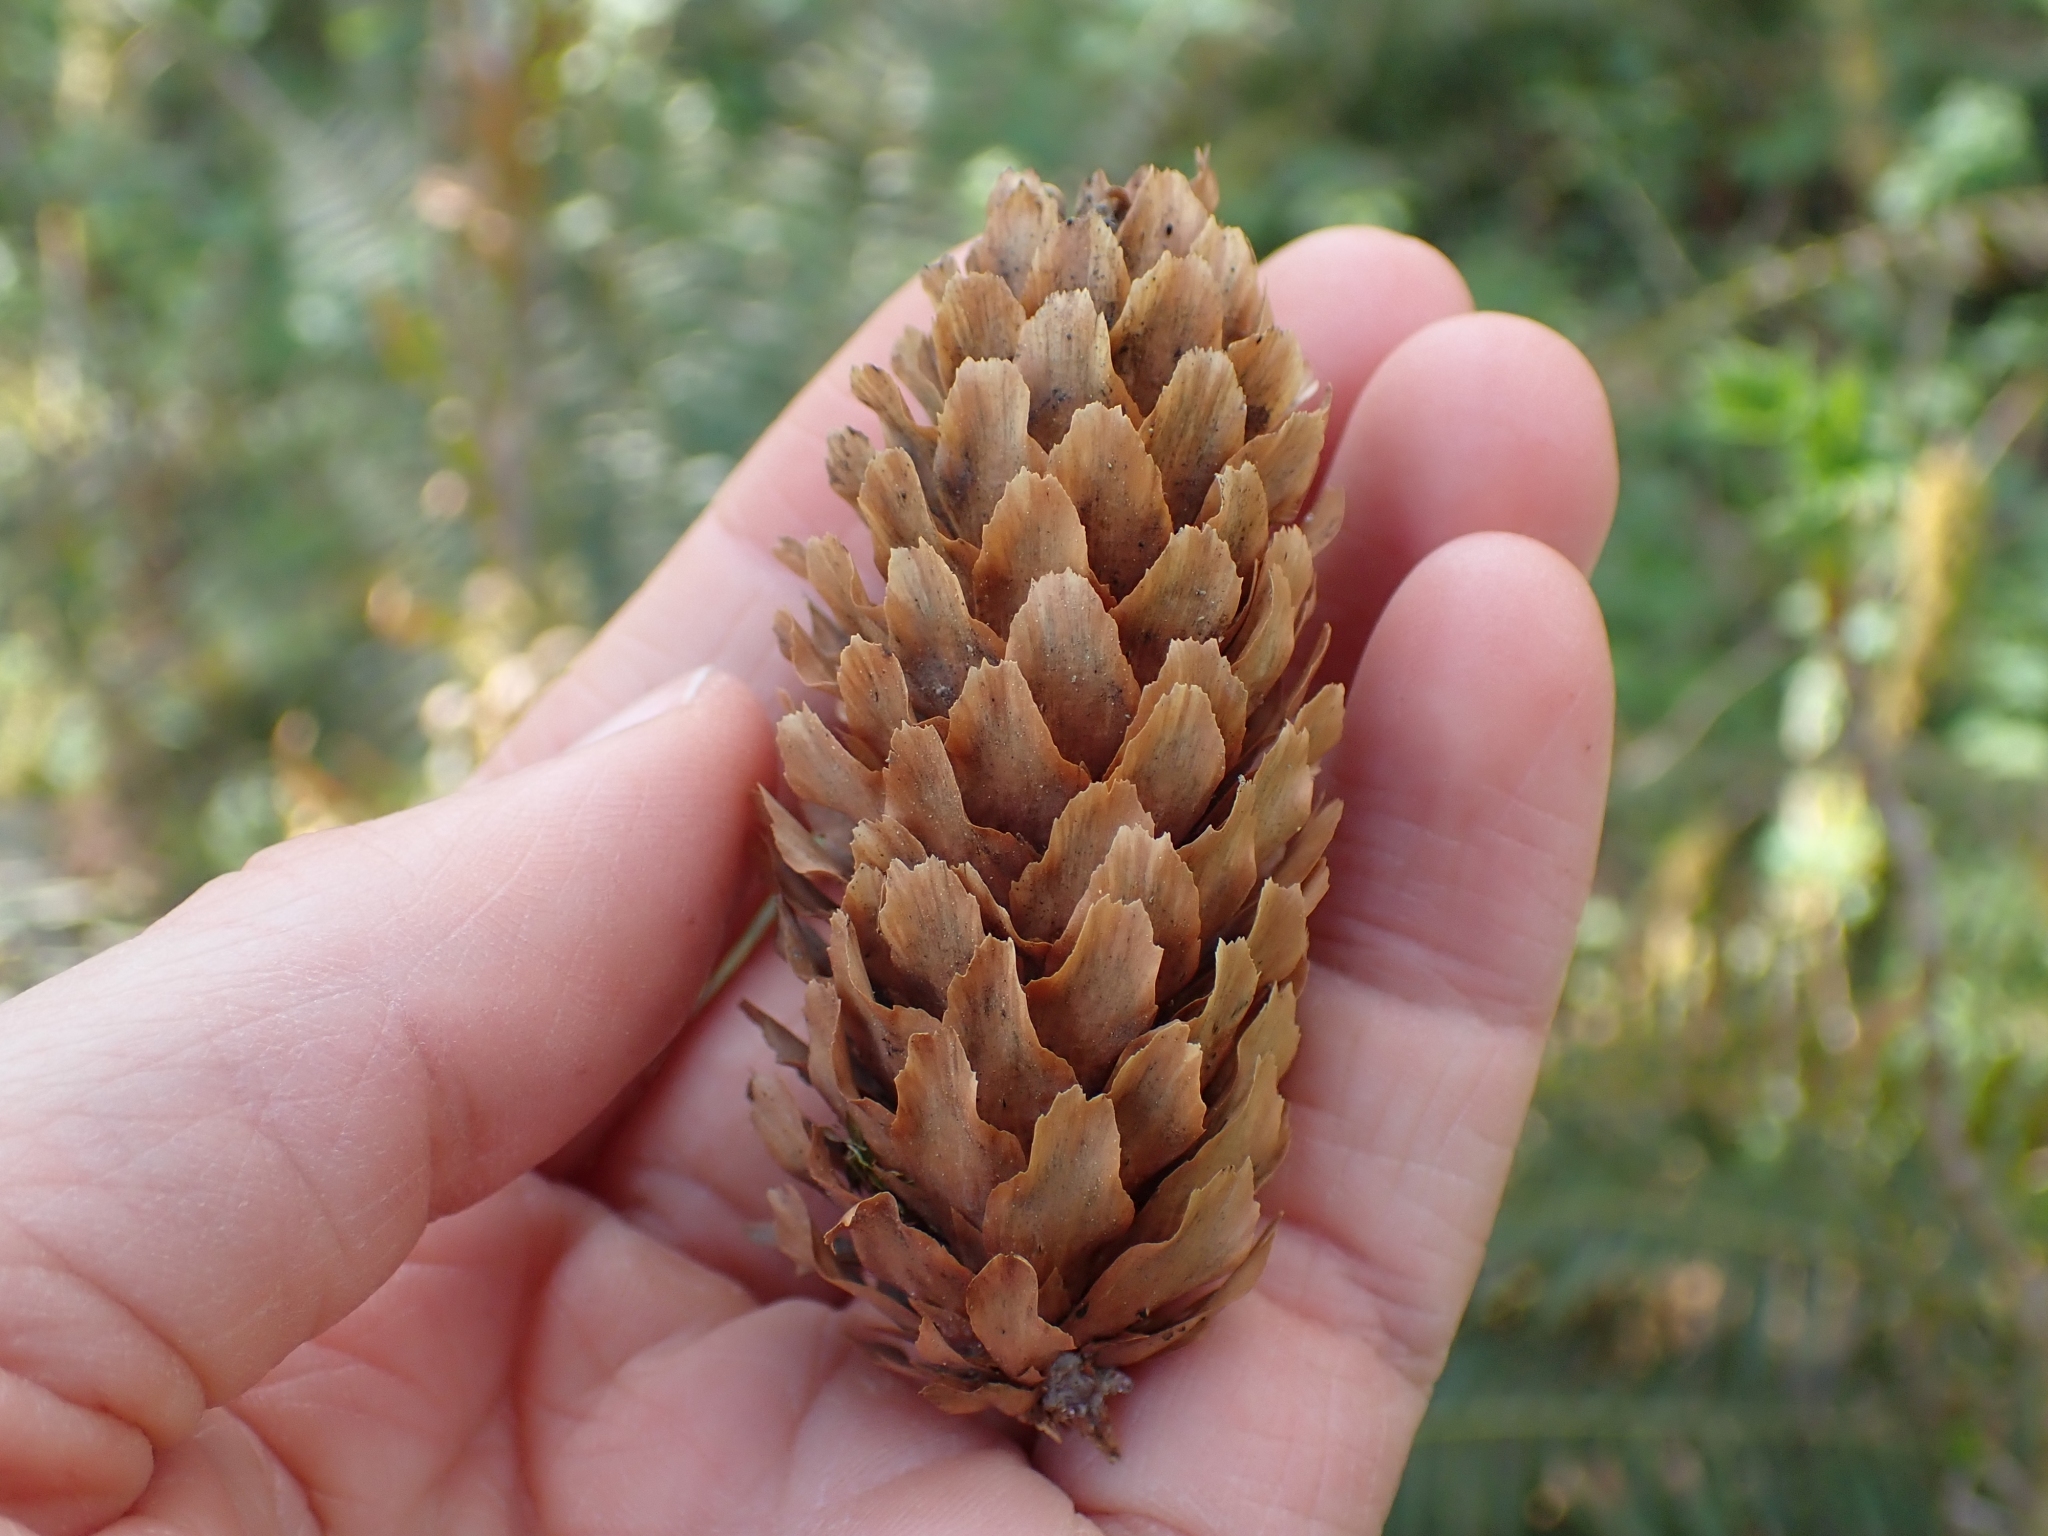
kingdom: Plantae
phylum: Tracheophyta
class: Pinopsida
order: Pinales
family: Pinaceae
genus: Picea
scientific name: Picea sitchensis
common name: Sitka spruce
